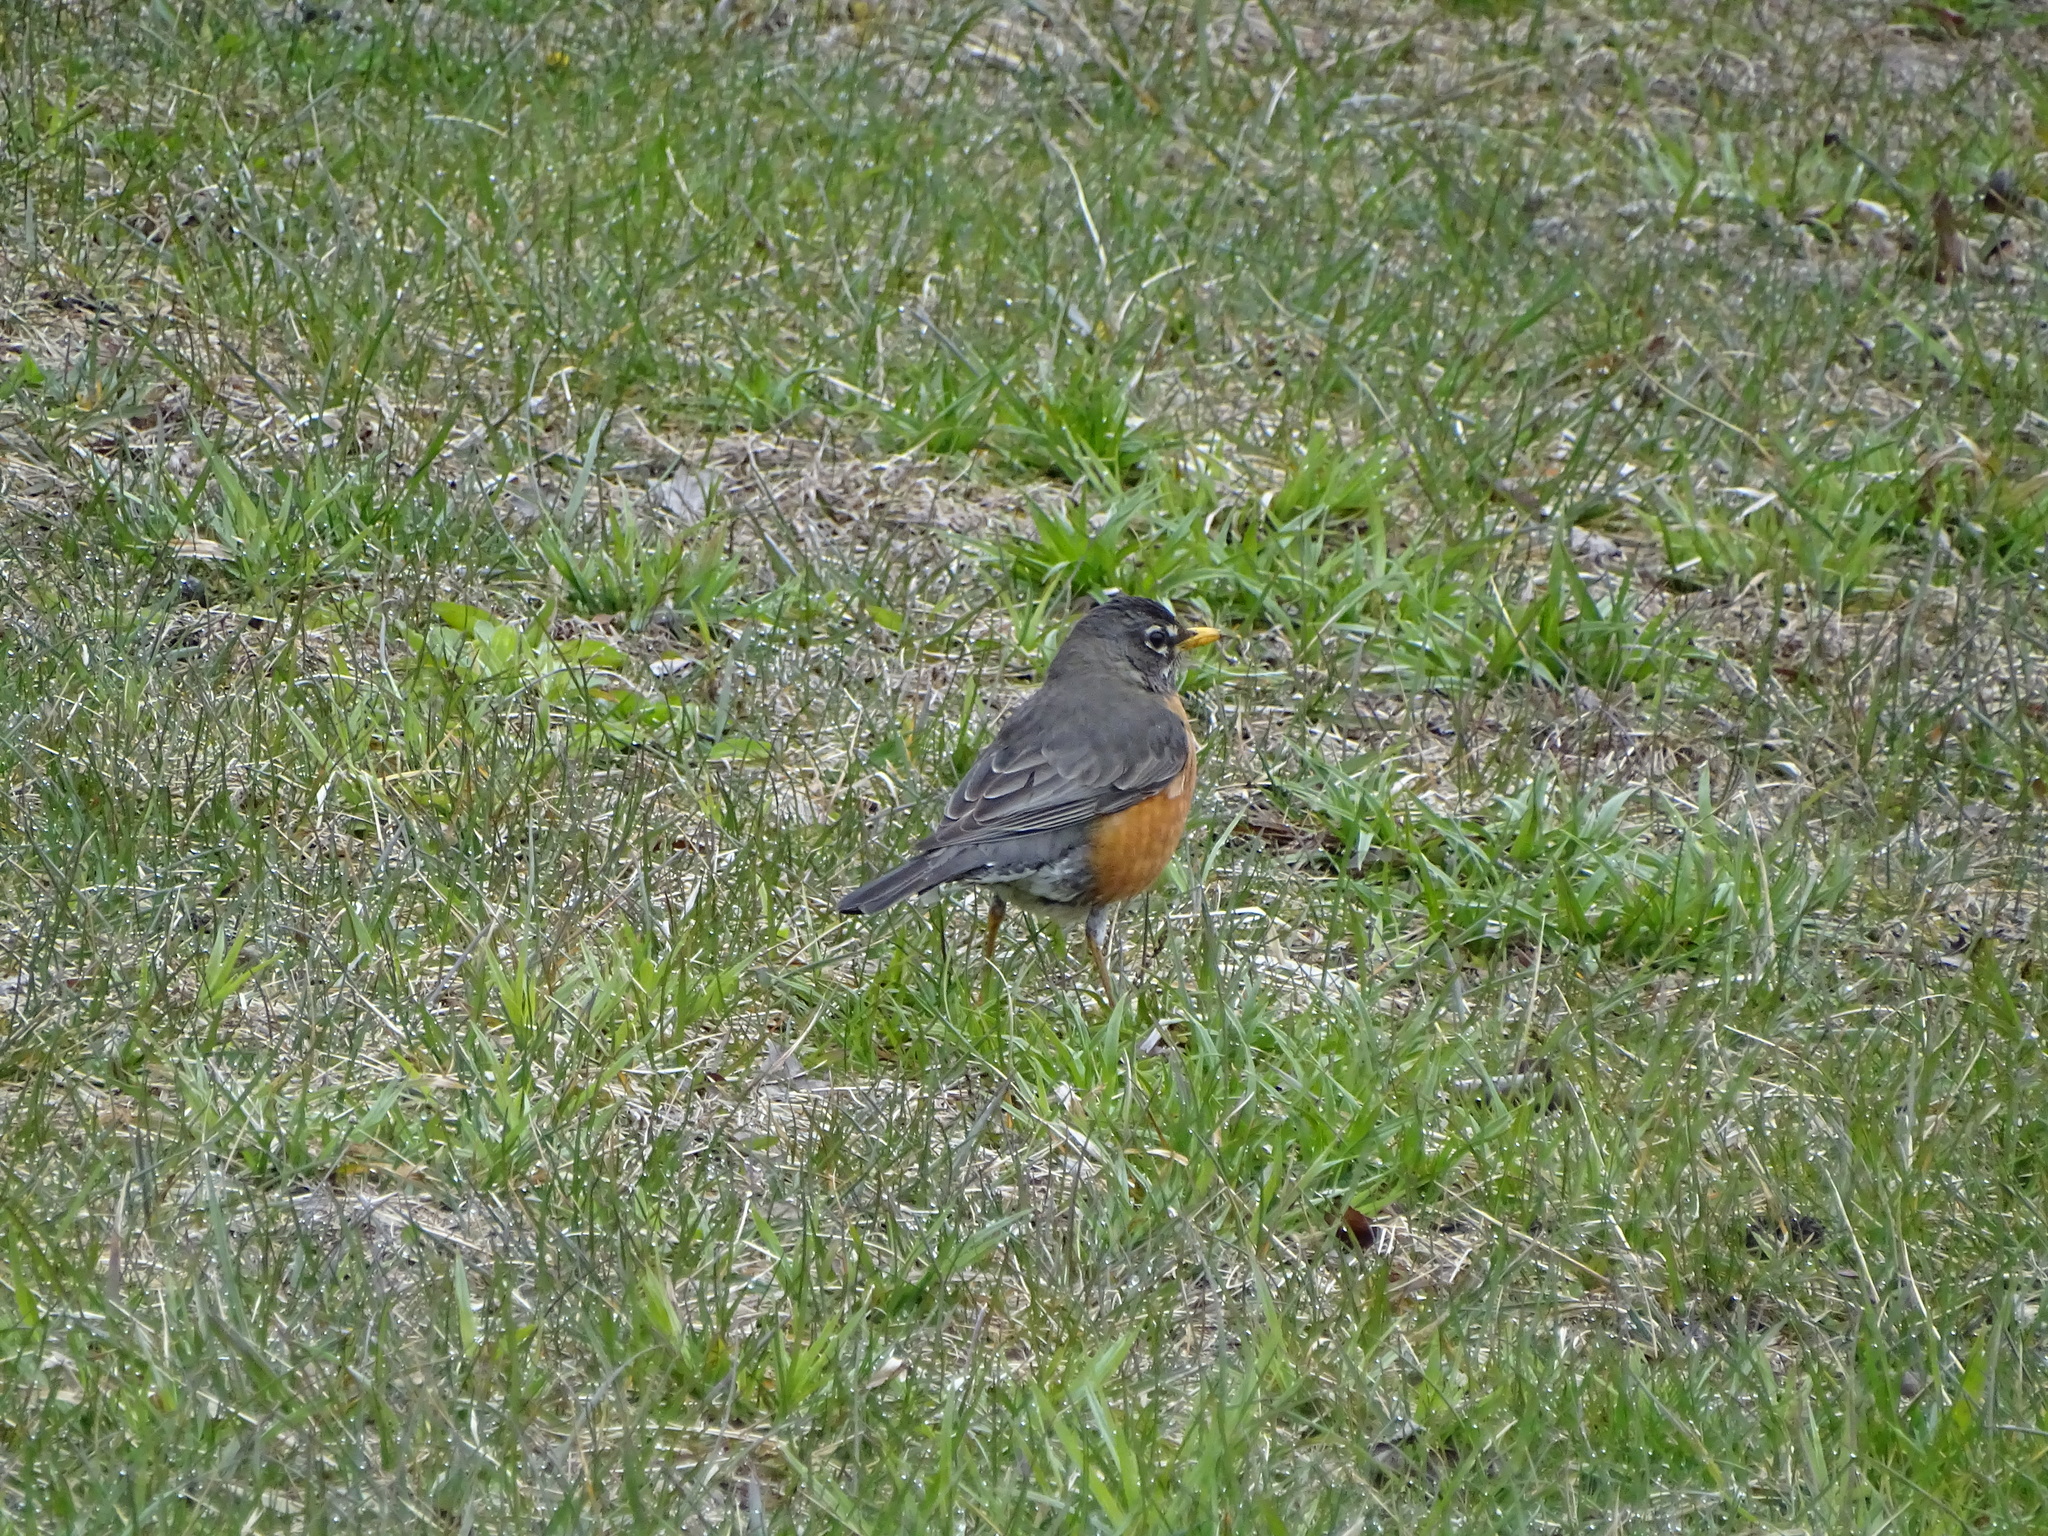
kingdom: Animalia
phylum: Chordata
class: Aves
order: Passeriformes
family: Turdidae
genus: Turdus
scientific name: Turdus migratorius
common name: American robin
